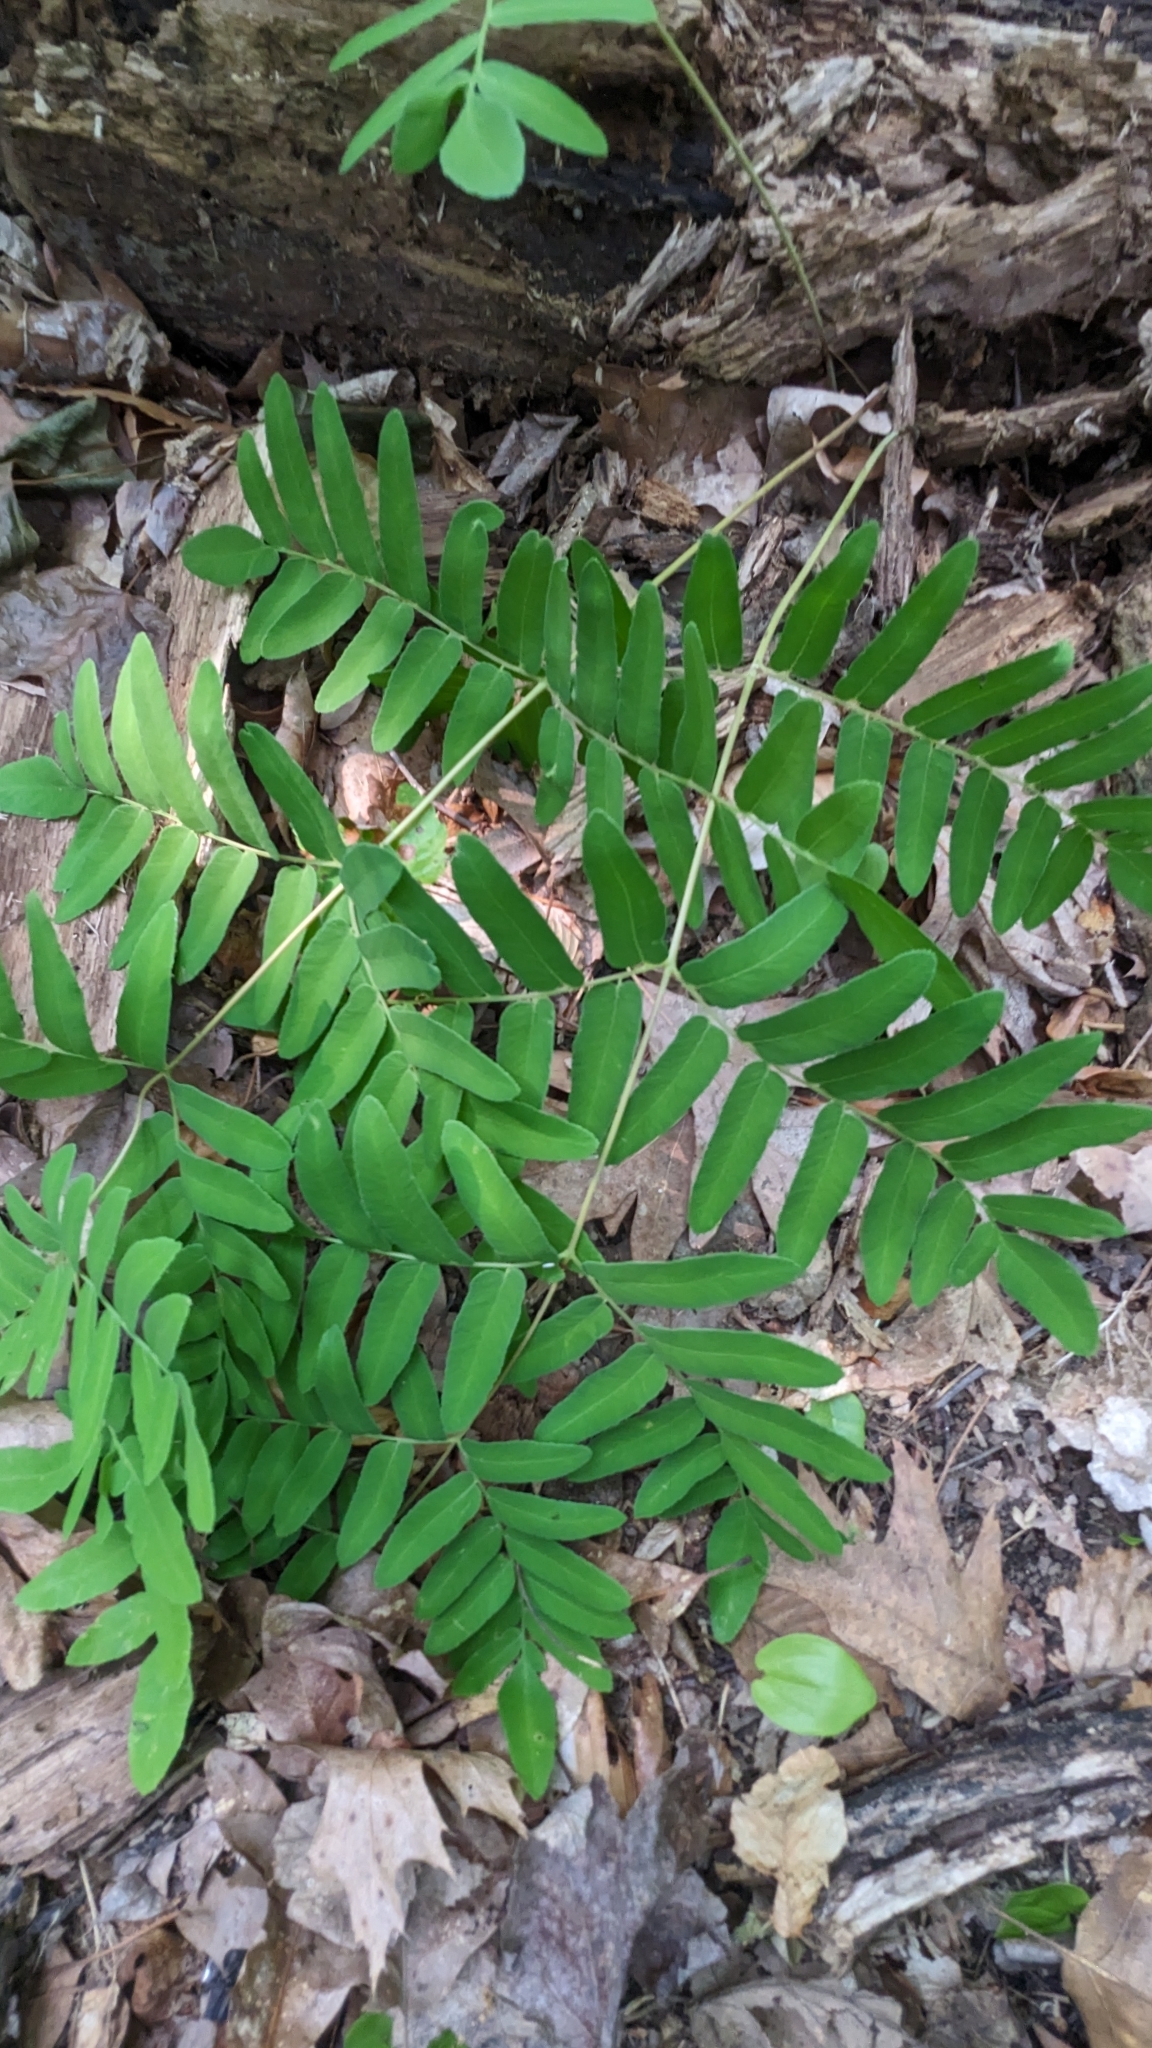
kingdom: Plantae
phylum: Tracheophyta
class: Polypodiopsida
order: Osmundales
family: Osmundaceae
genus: Osmunda
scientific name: Osmunda spectabilis
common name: American royal fern
